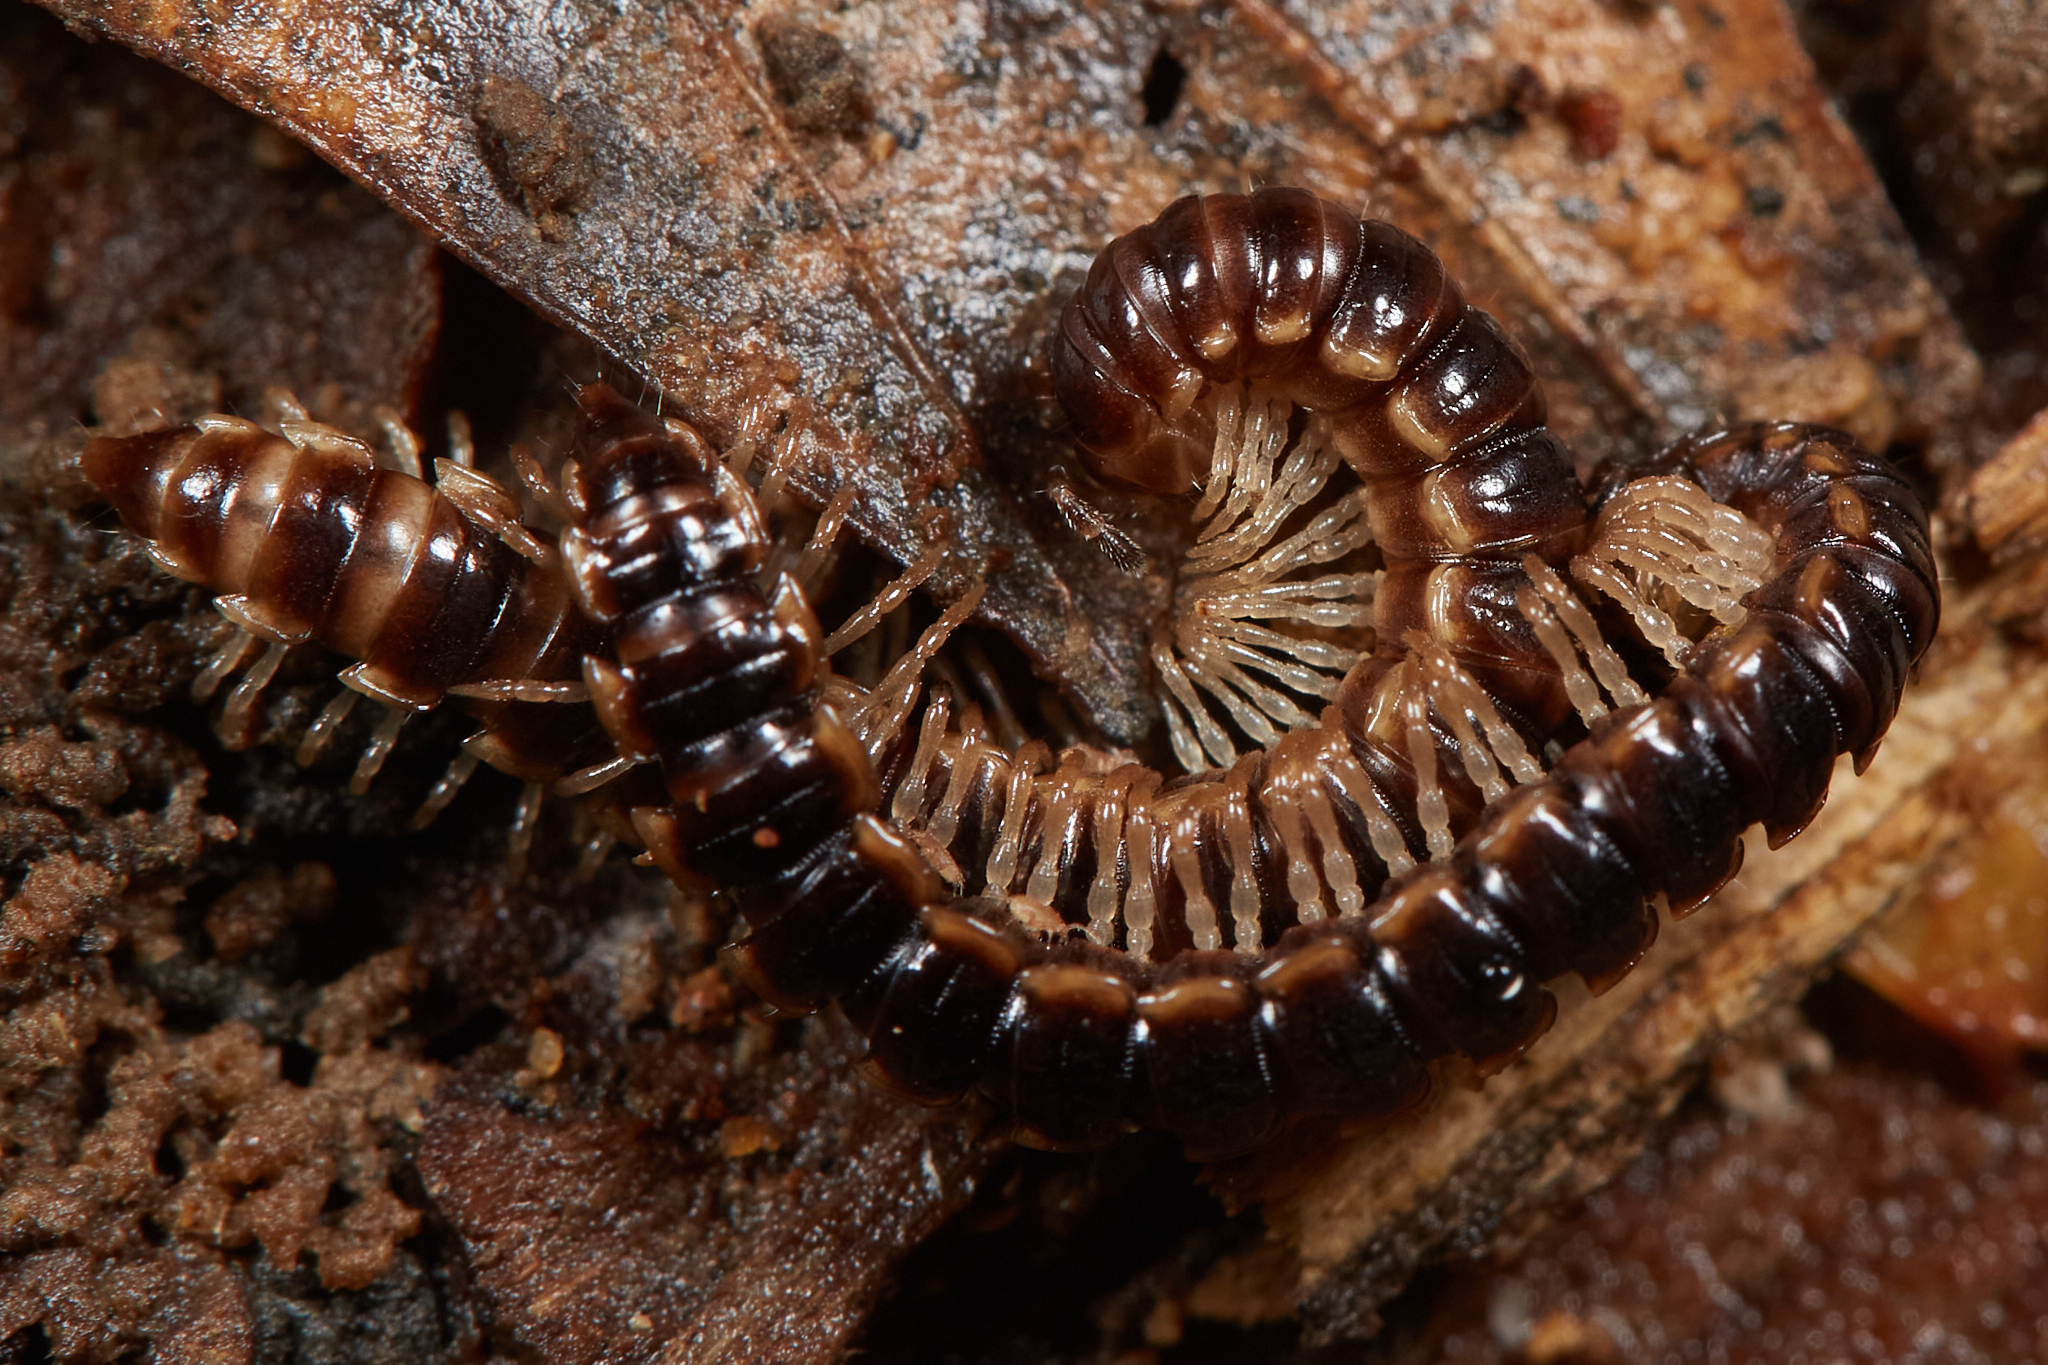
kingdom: Animalia
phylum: Arthropoda
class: Diplopoda
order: Polydesmida
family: Paradoxosomatidae
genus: Oxidus
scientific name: Oxidus gracilis
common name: Greenhouse millipede
